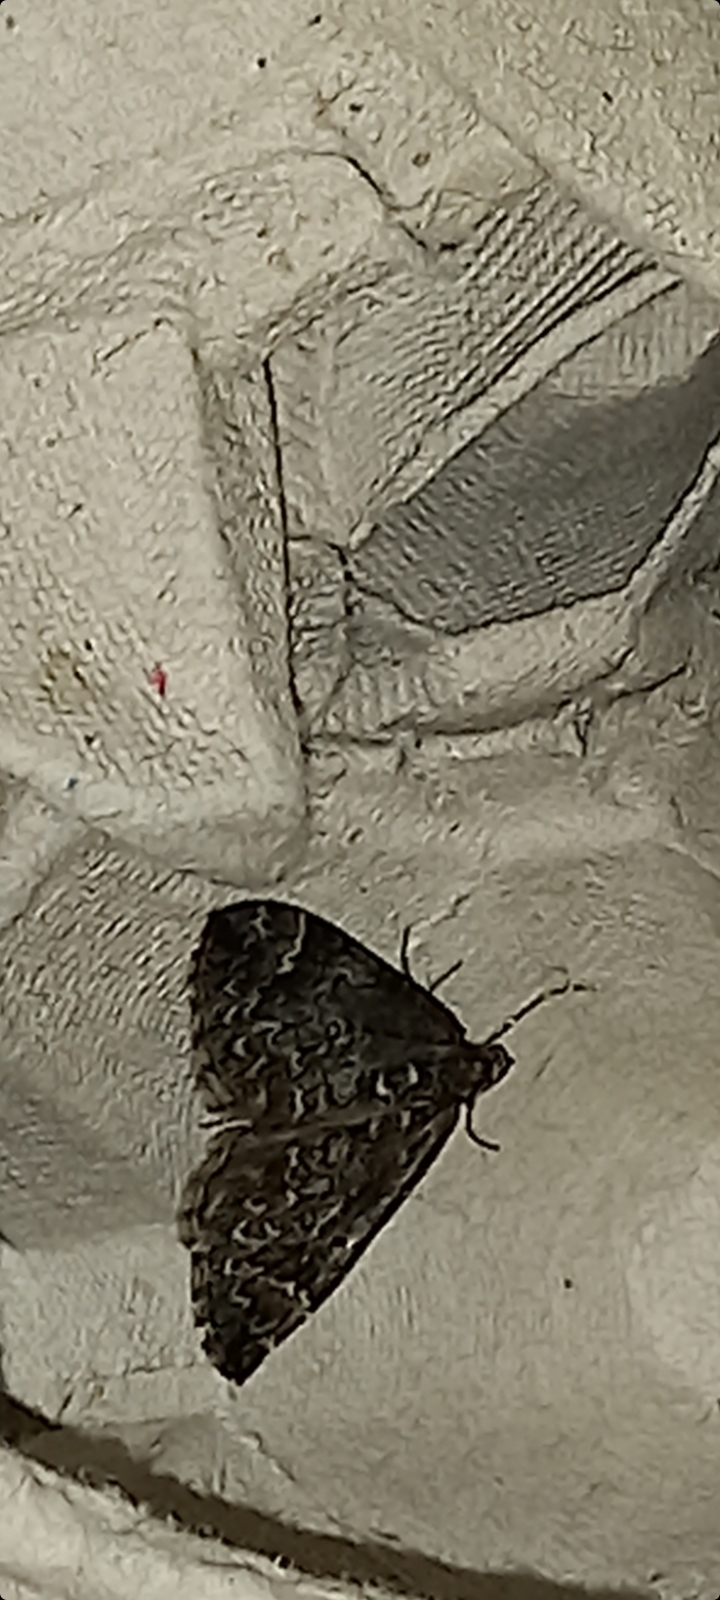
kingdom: Animalia
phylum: Arthropoda
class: Insecta
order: Lepidoptera
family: Geometridae
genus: Dysstroma
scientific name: Dysstroma truncata
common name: Common marbled carpet
